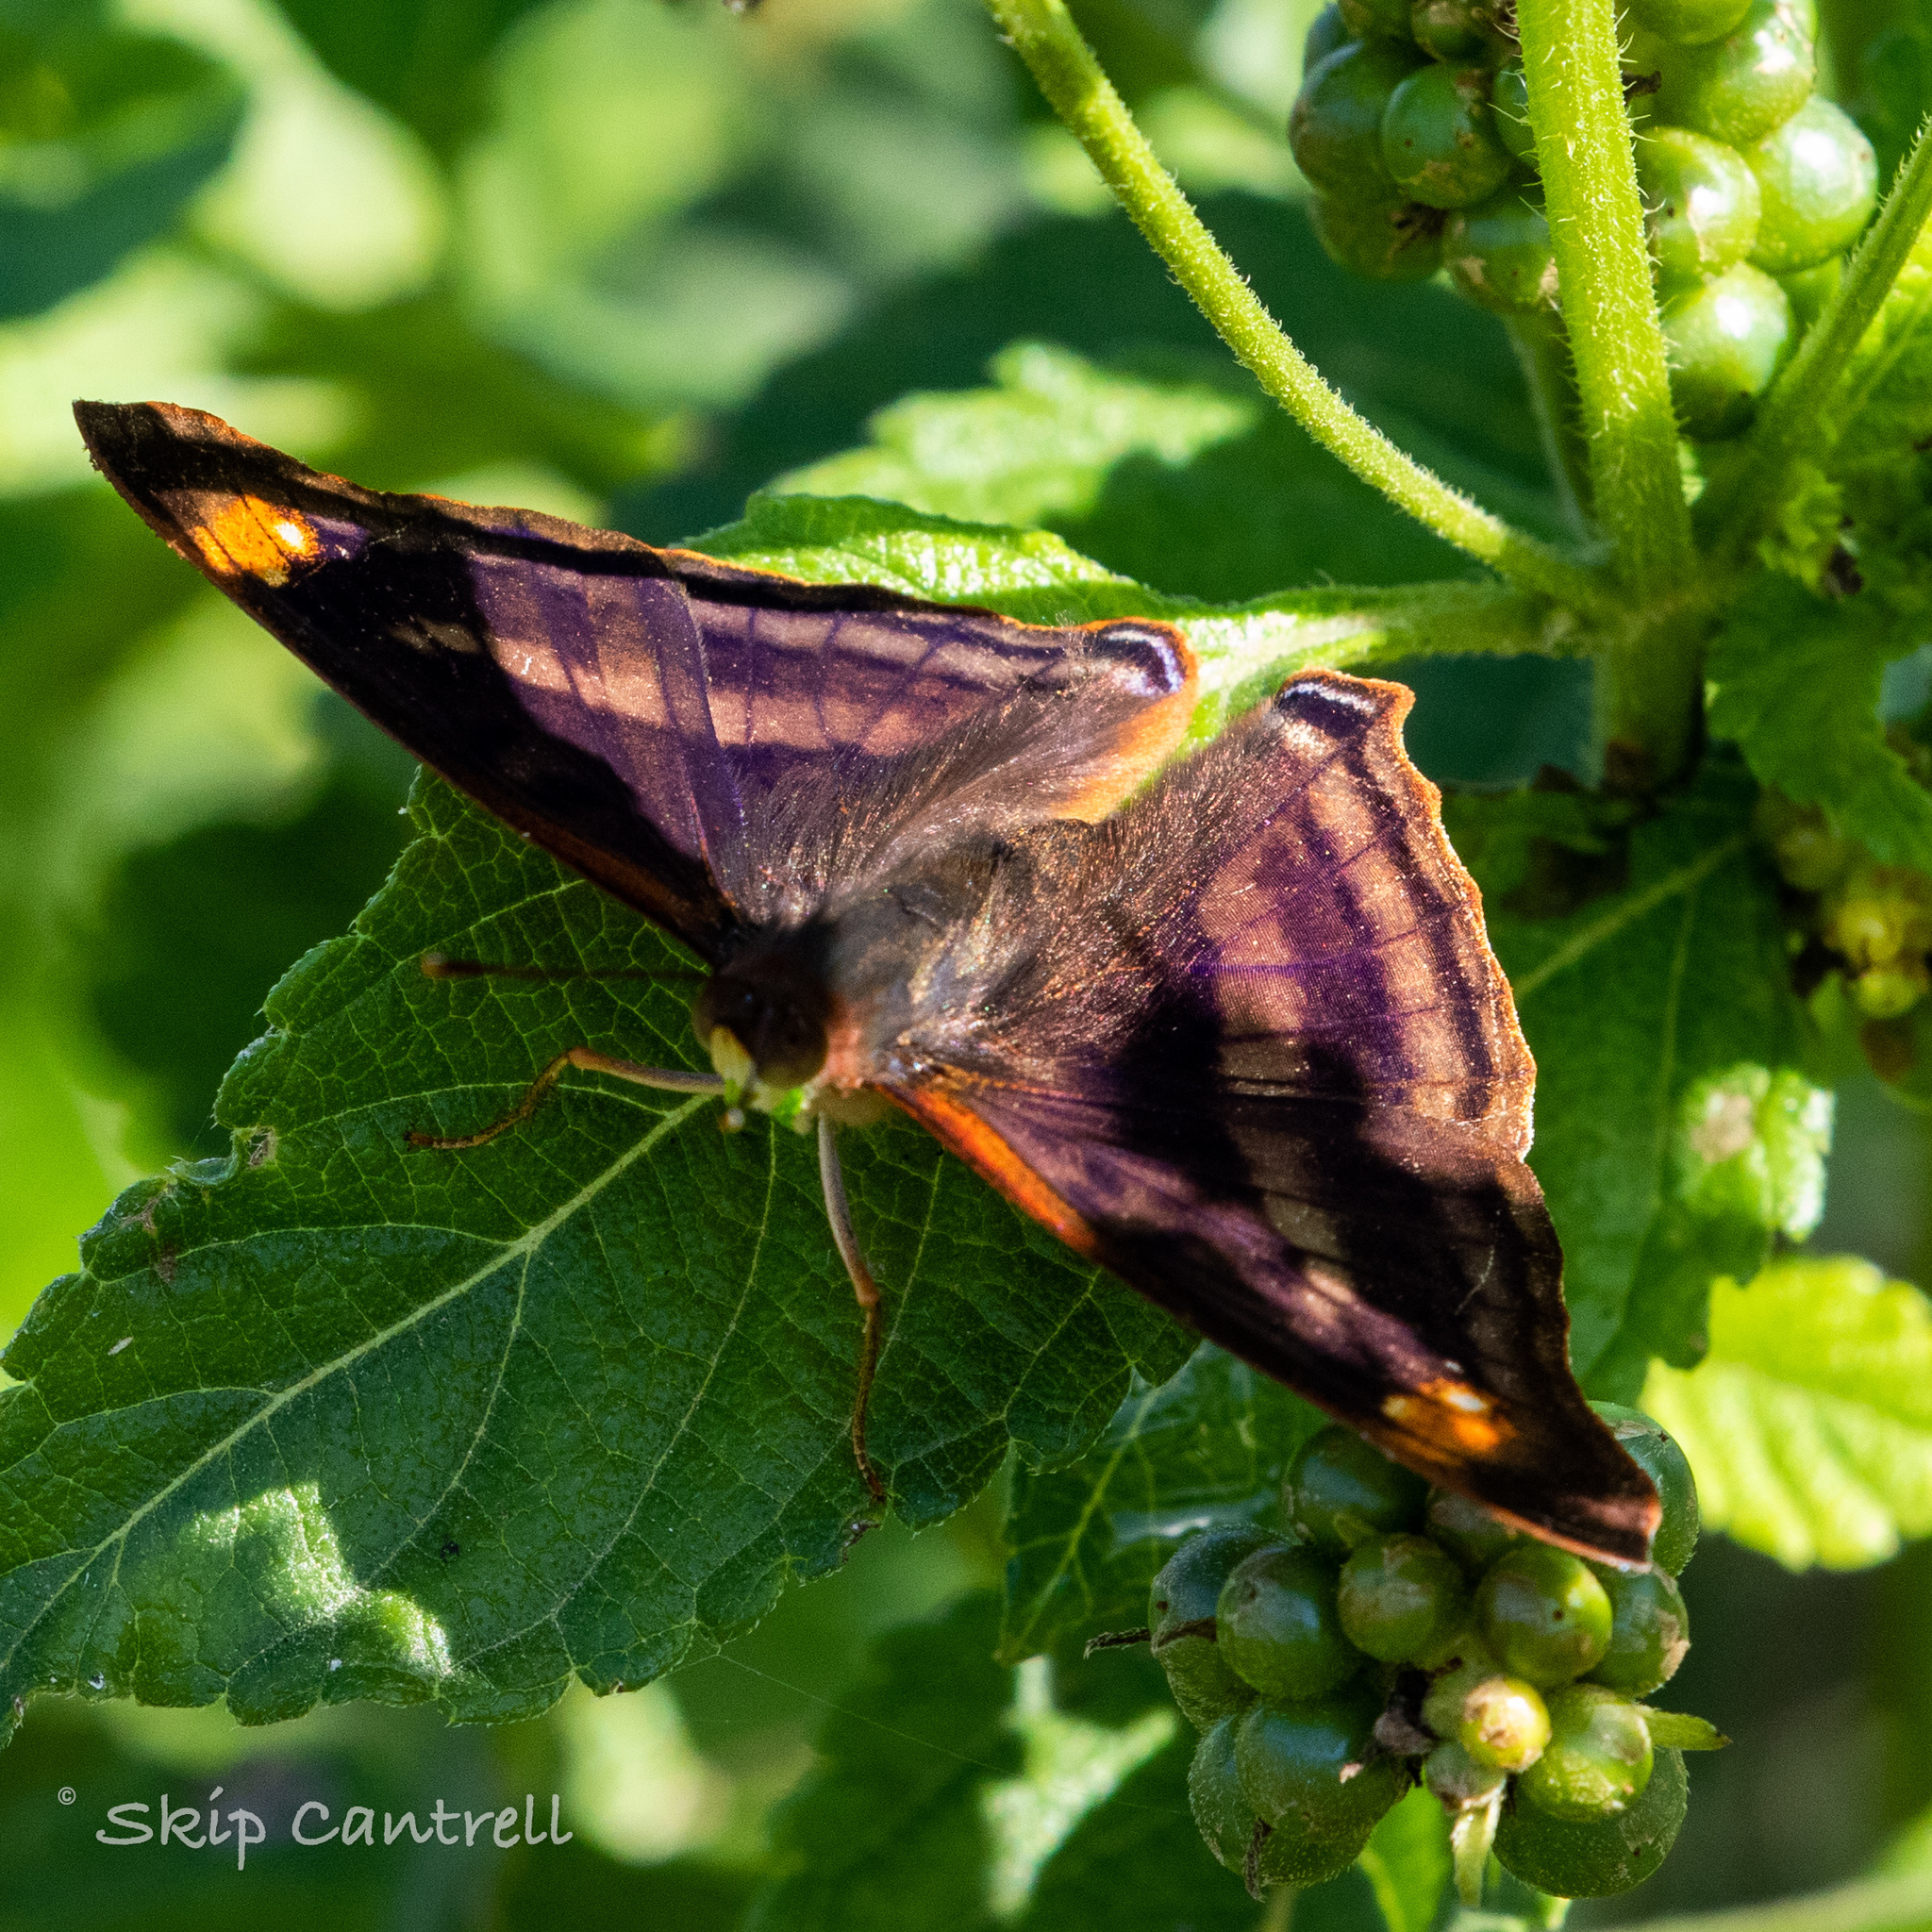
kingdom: Animalia
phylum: Arthropoda
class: Insecta
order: Lepidoptera
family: Nymphalidae
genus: Doxocopa
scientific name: Doxocopa pavon
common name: Pavon emperor
